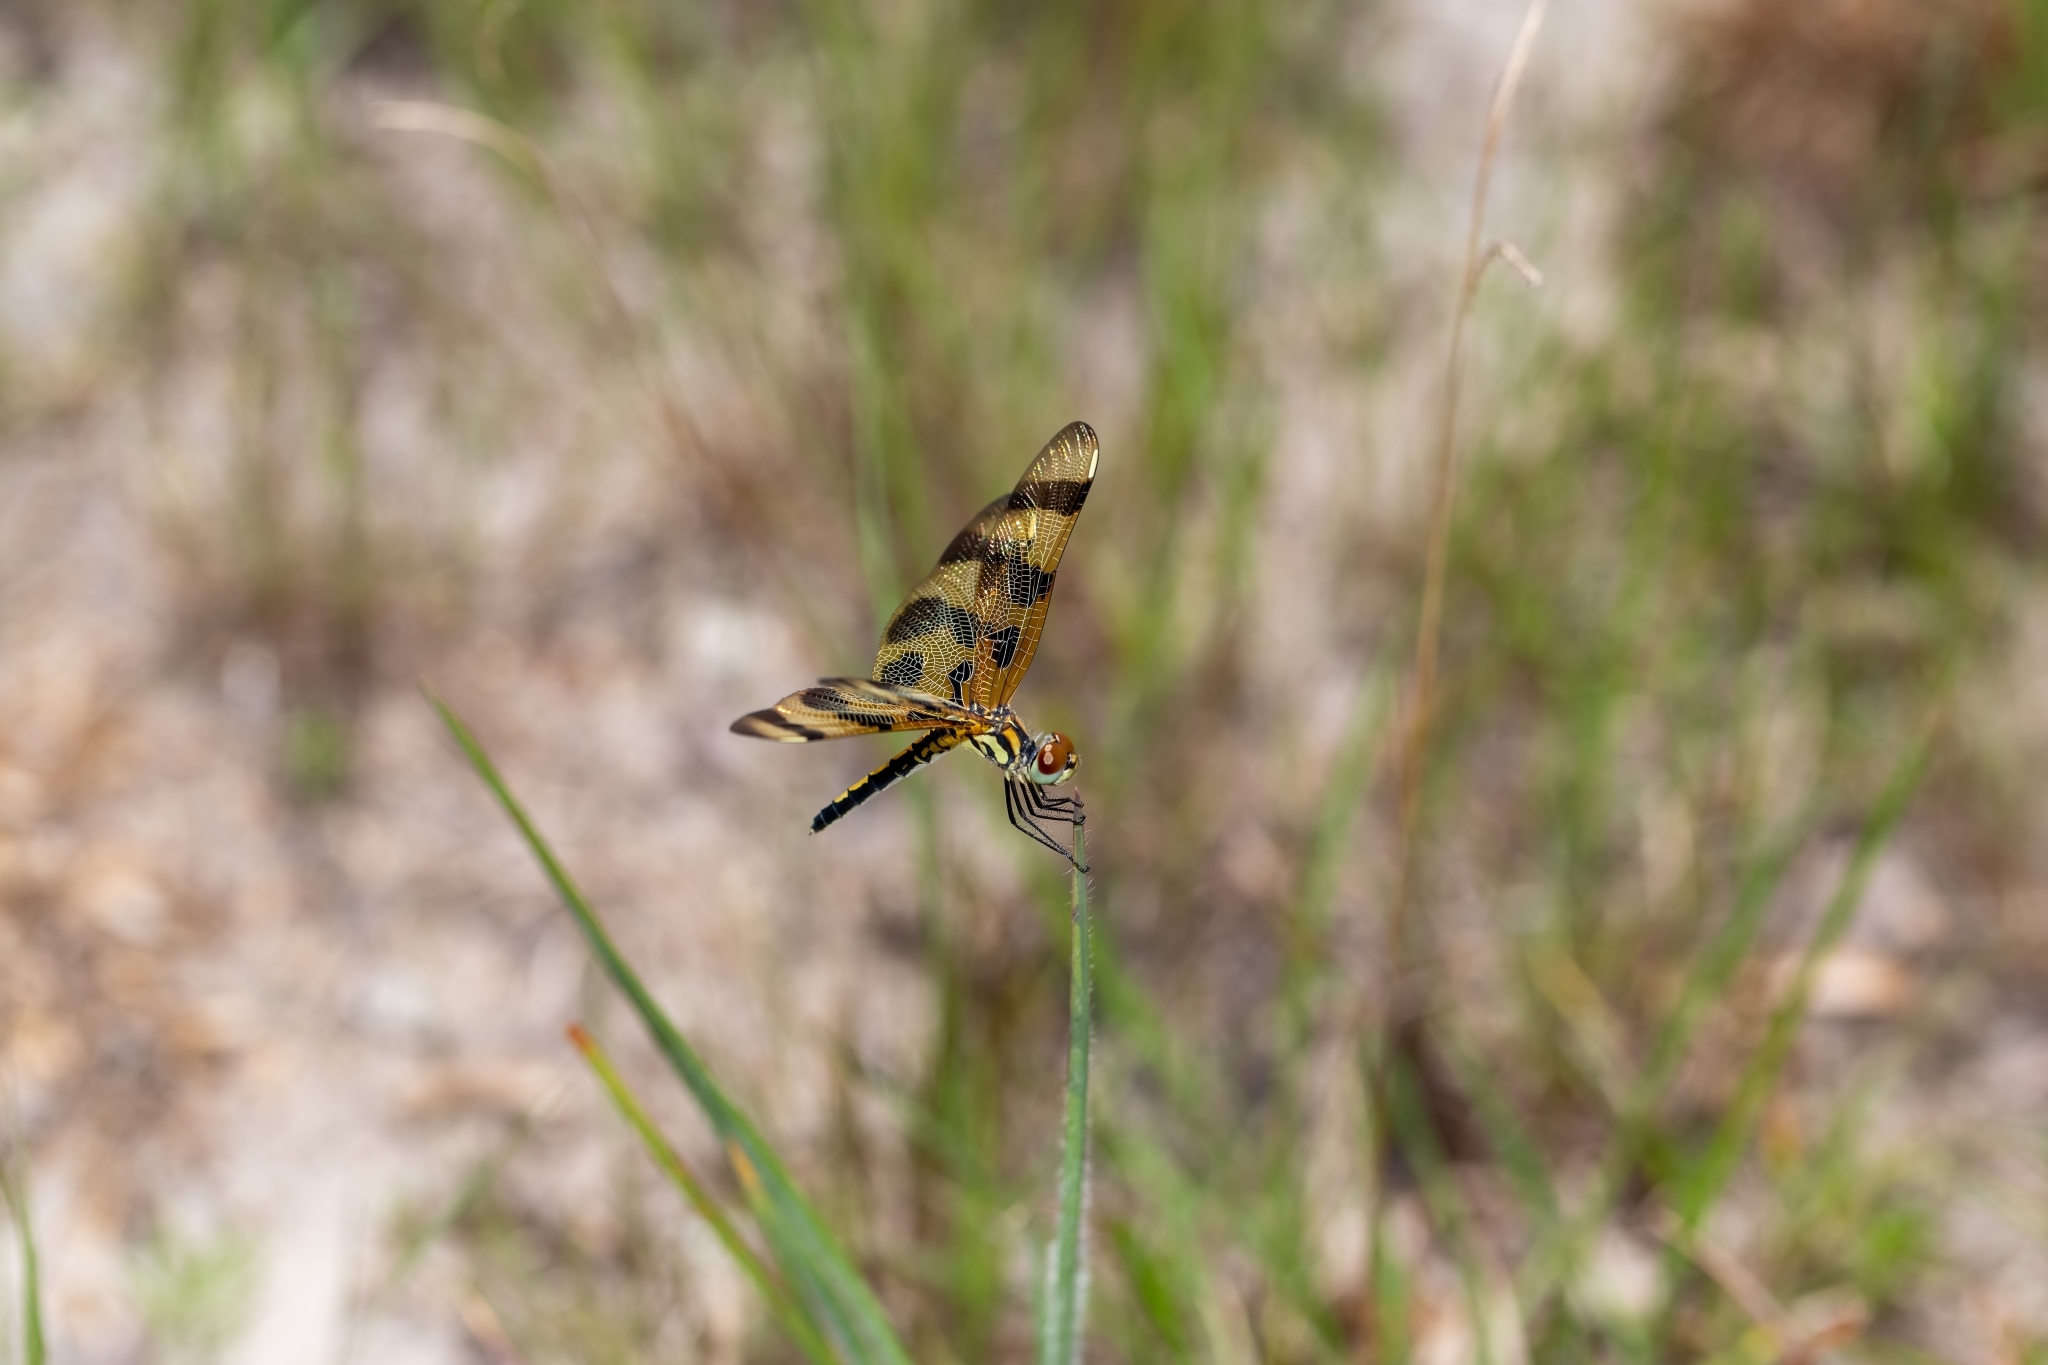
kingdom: Animalia
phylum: Arthropoda
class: Insecta
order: Odonata
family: Libellulidae
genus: Celithemis
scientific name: Celithemis eponina
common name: Halloween pennant
